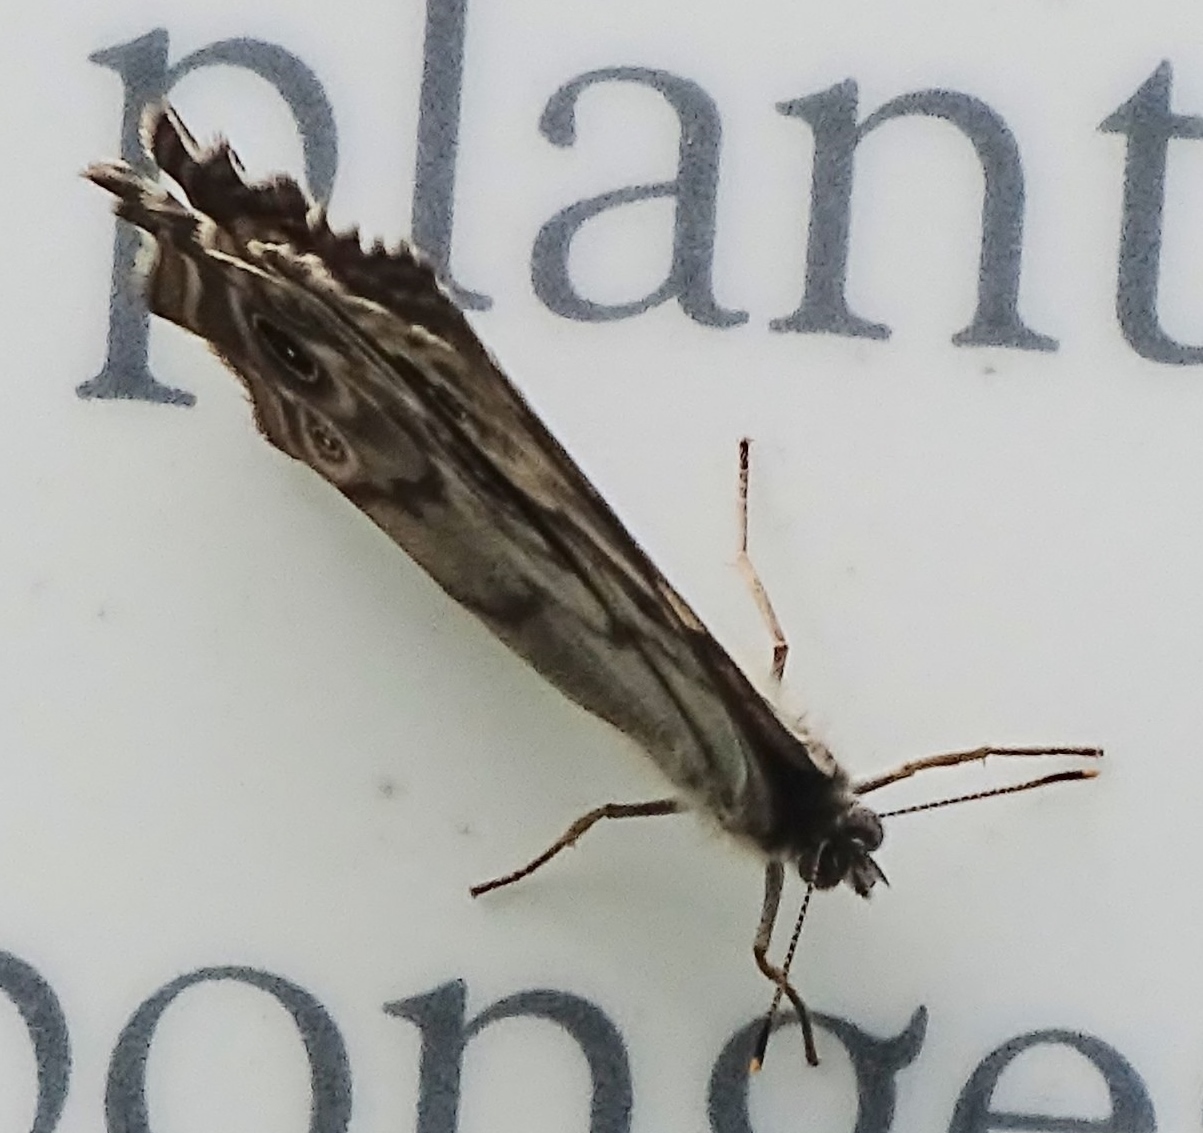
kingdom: Animalia
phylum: Arthropoda
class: Insecta
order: Lepidoptera
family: Nymphalidae
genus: Lethe
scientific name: Lethe anthedon
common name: Northern pearly-eye
